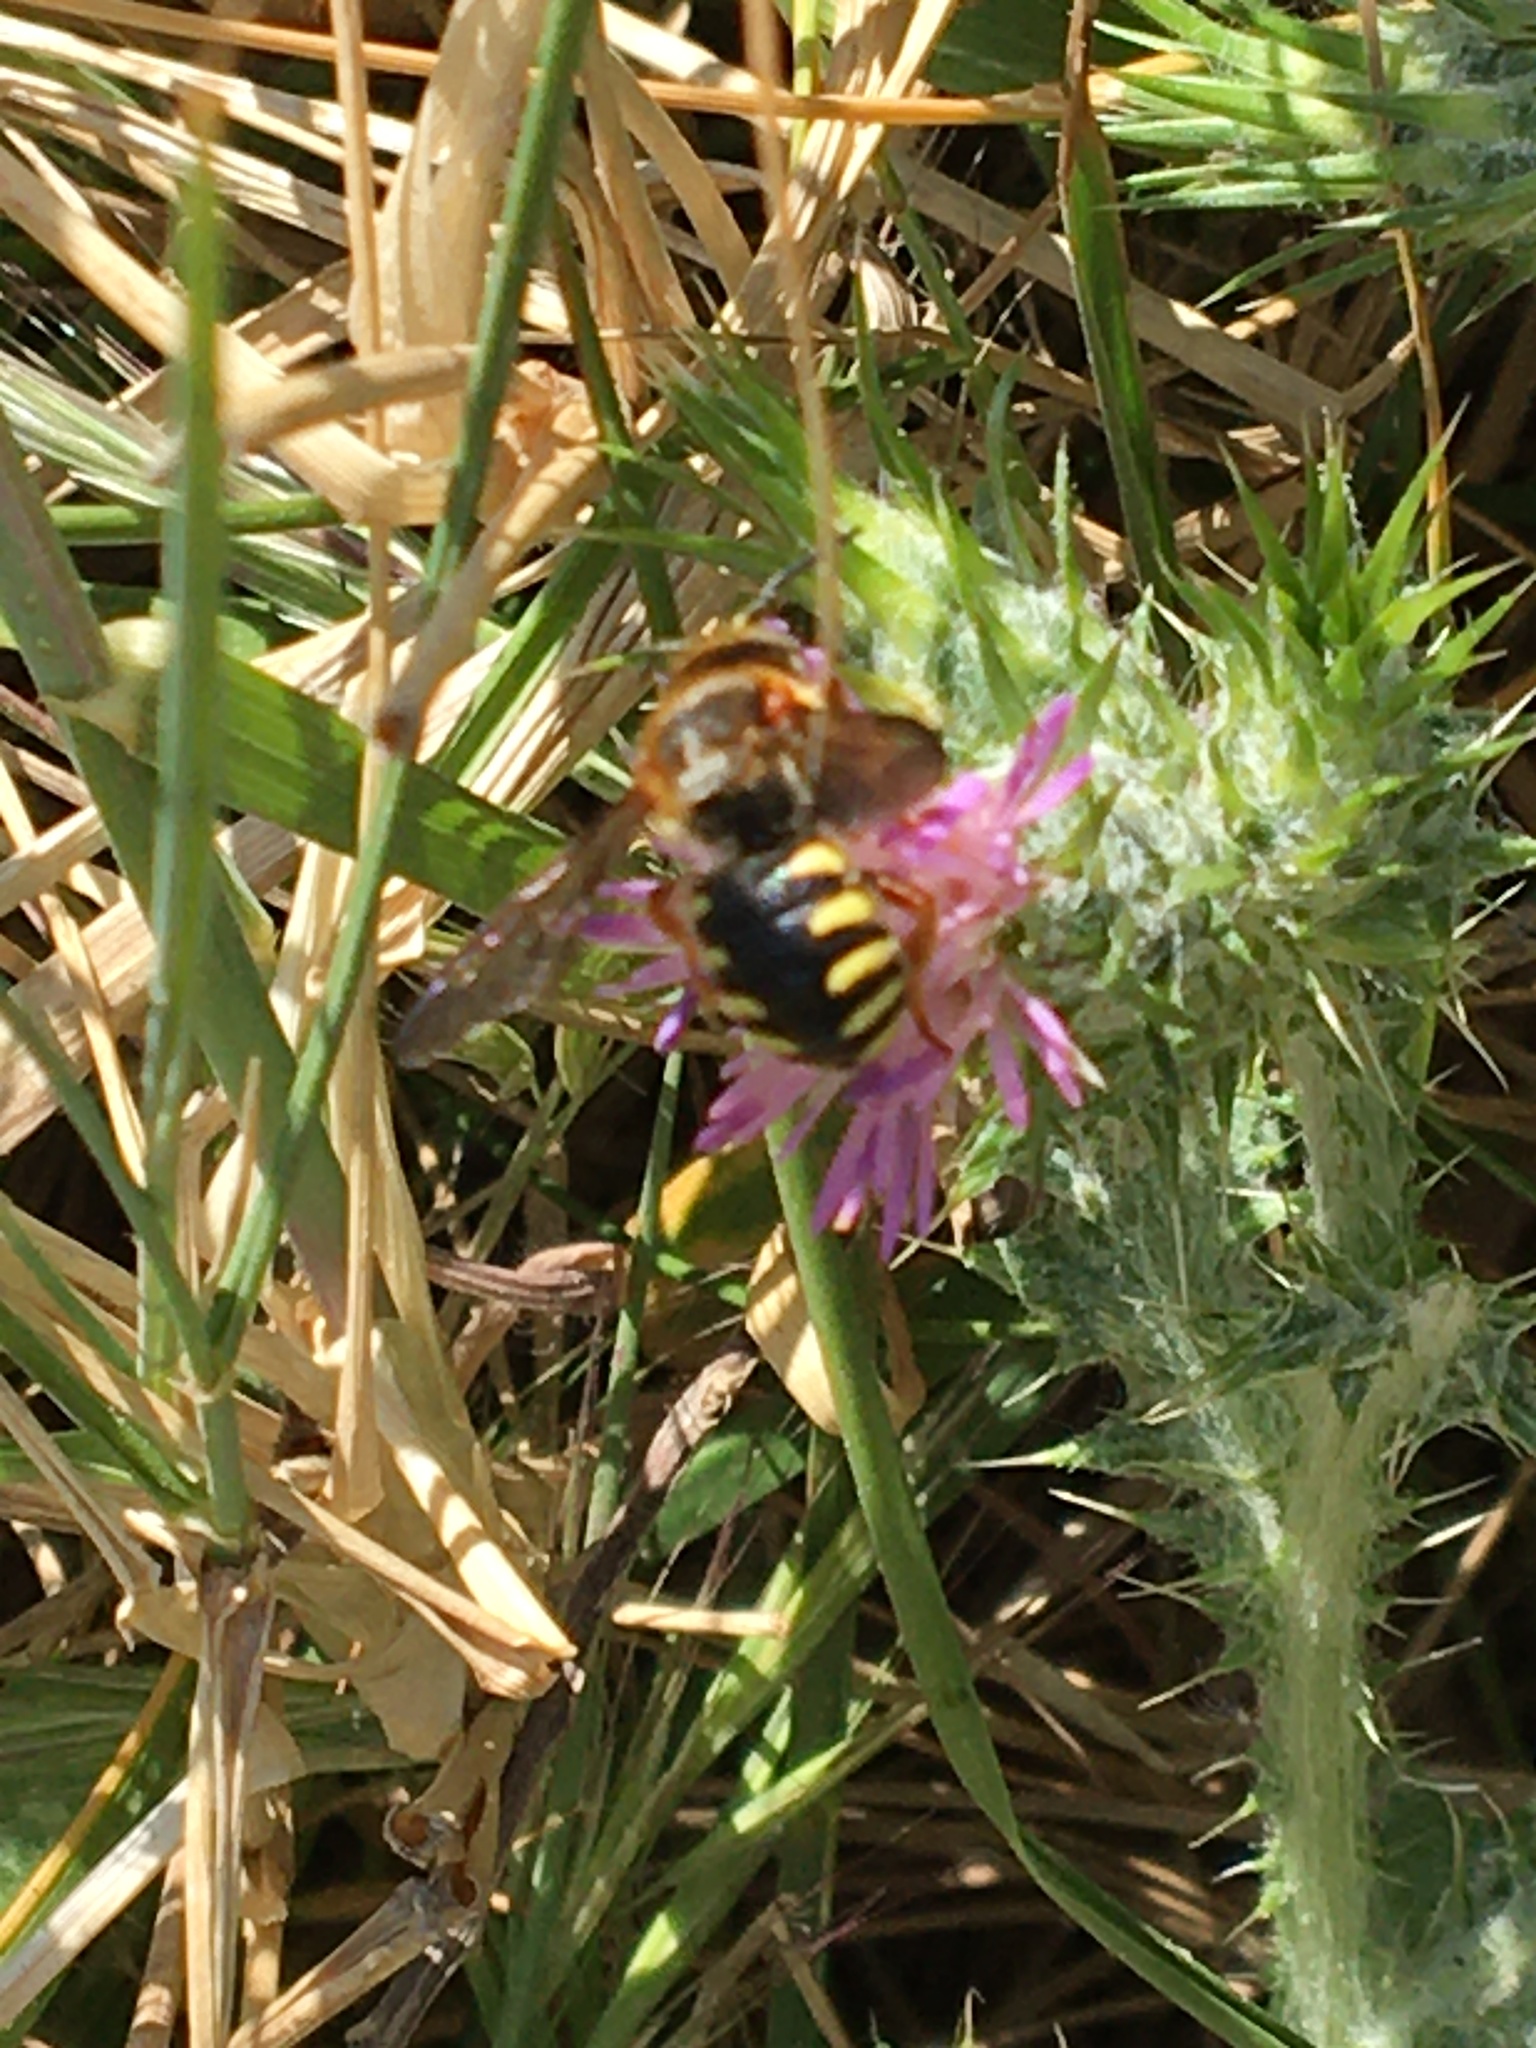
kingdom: Animalia
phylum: Arthropoda
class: Insecta
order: Hymenoptera
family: Megachilidae
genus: Rhodanthidium
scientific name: Rhodanthidium septemdentatum
